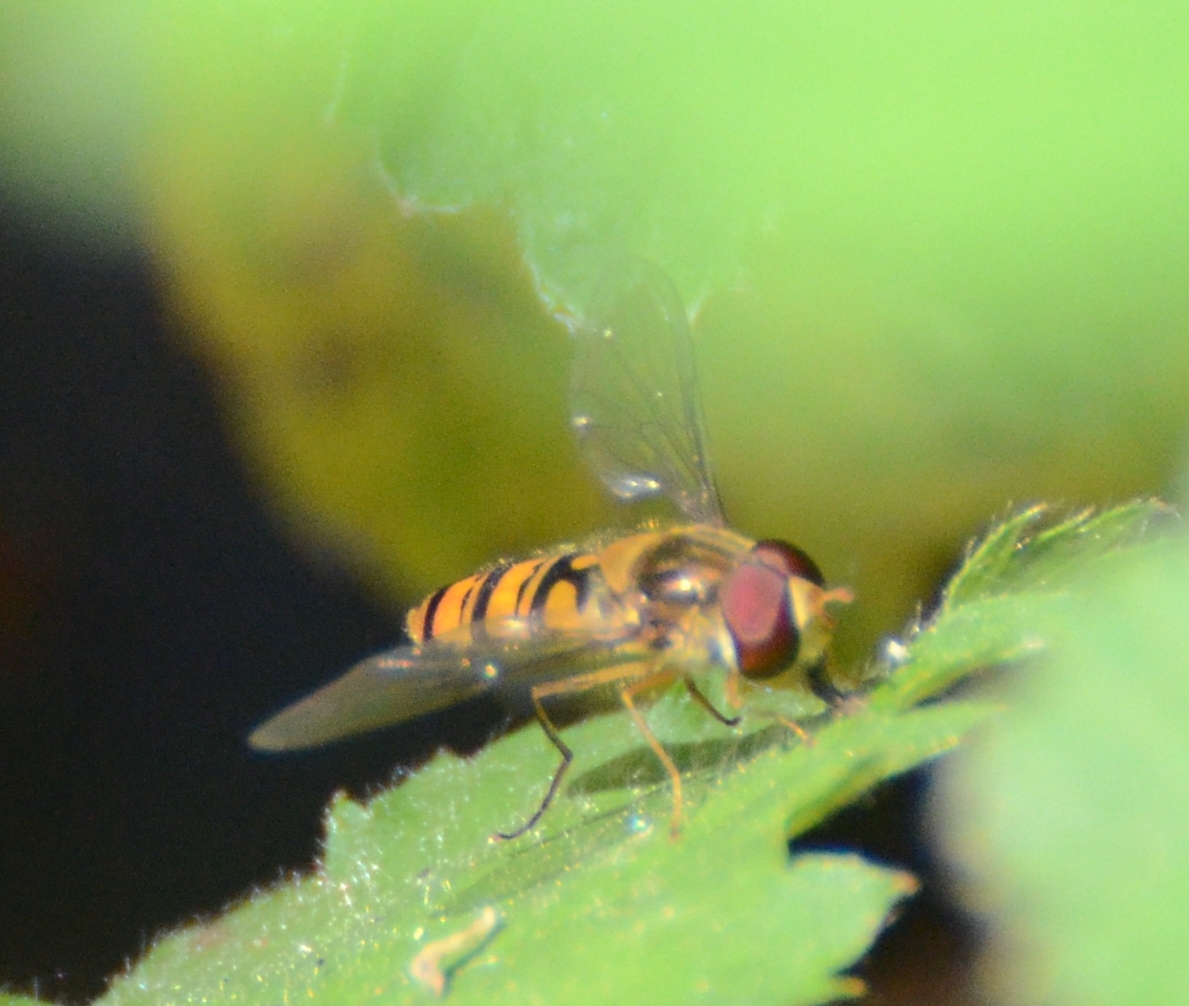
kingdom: Animalia
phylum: Arthropoda
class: Insecta
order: Diptera
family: Syrphidae
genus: Episyrphus
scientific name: Episyrphus balteatus
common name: Marmalade hoverfly
